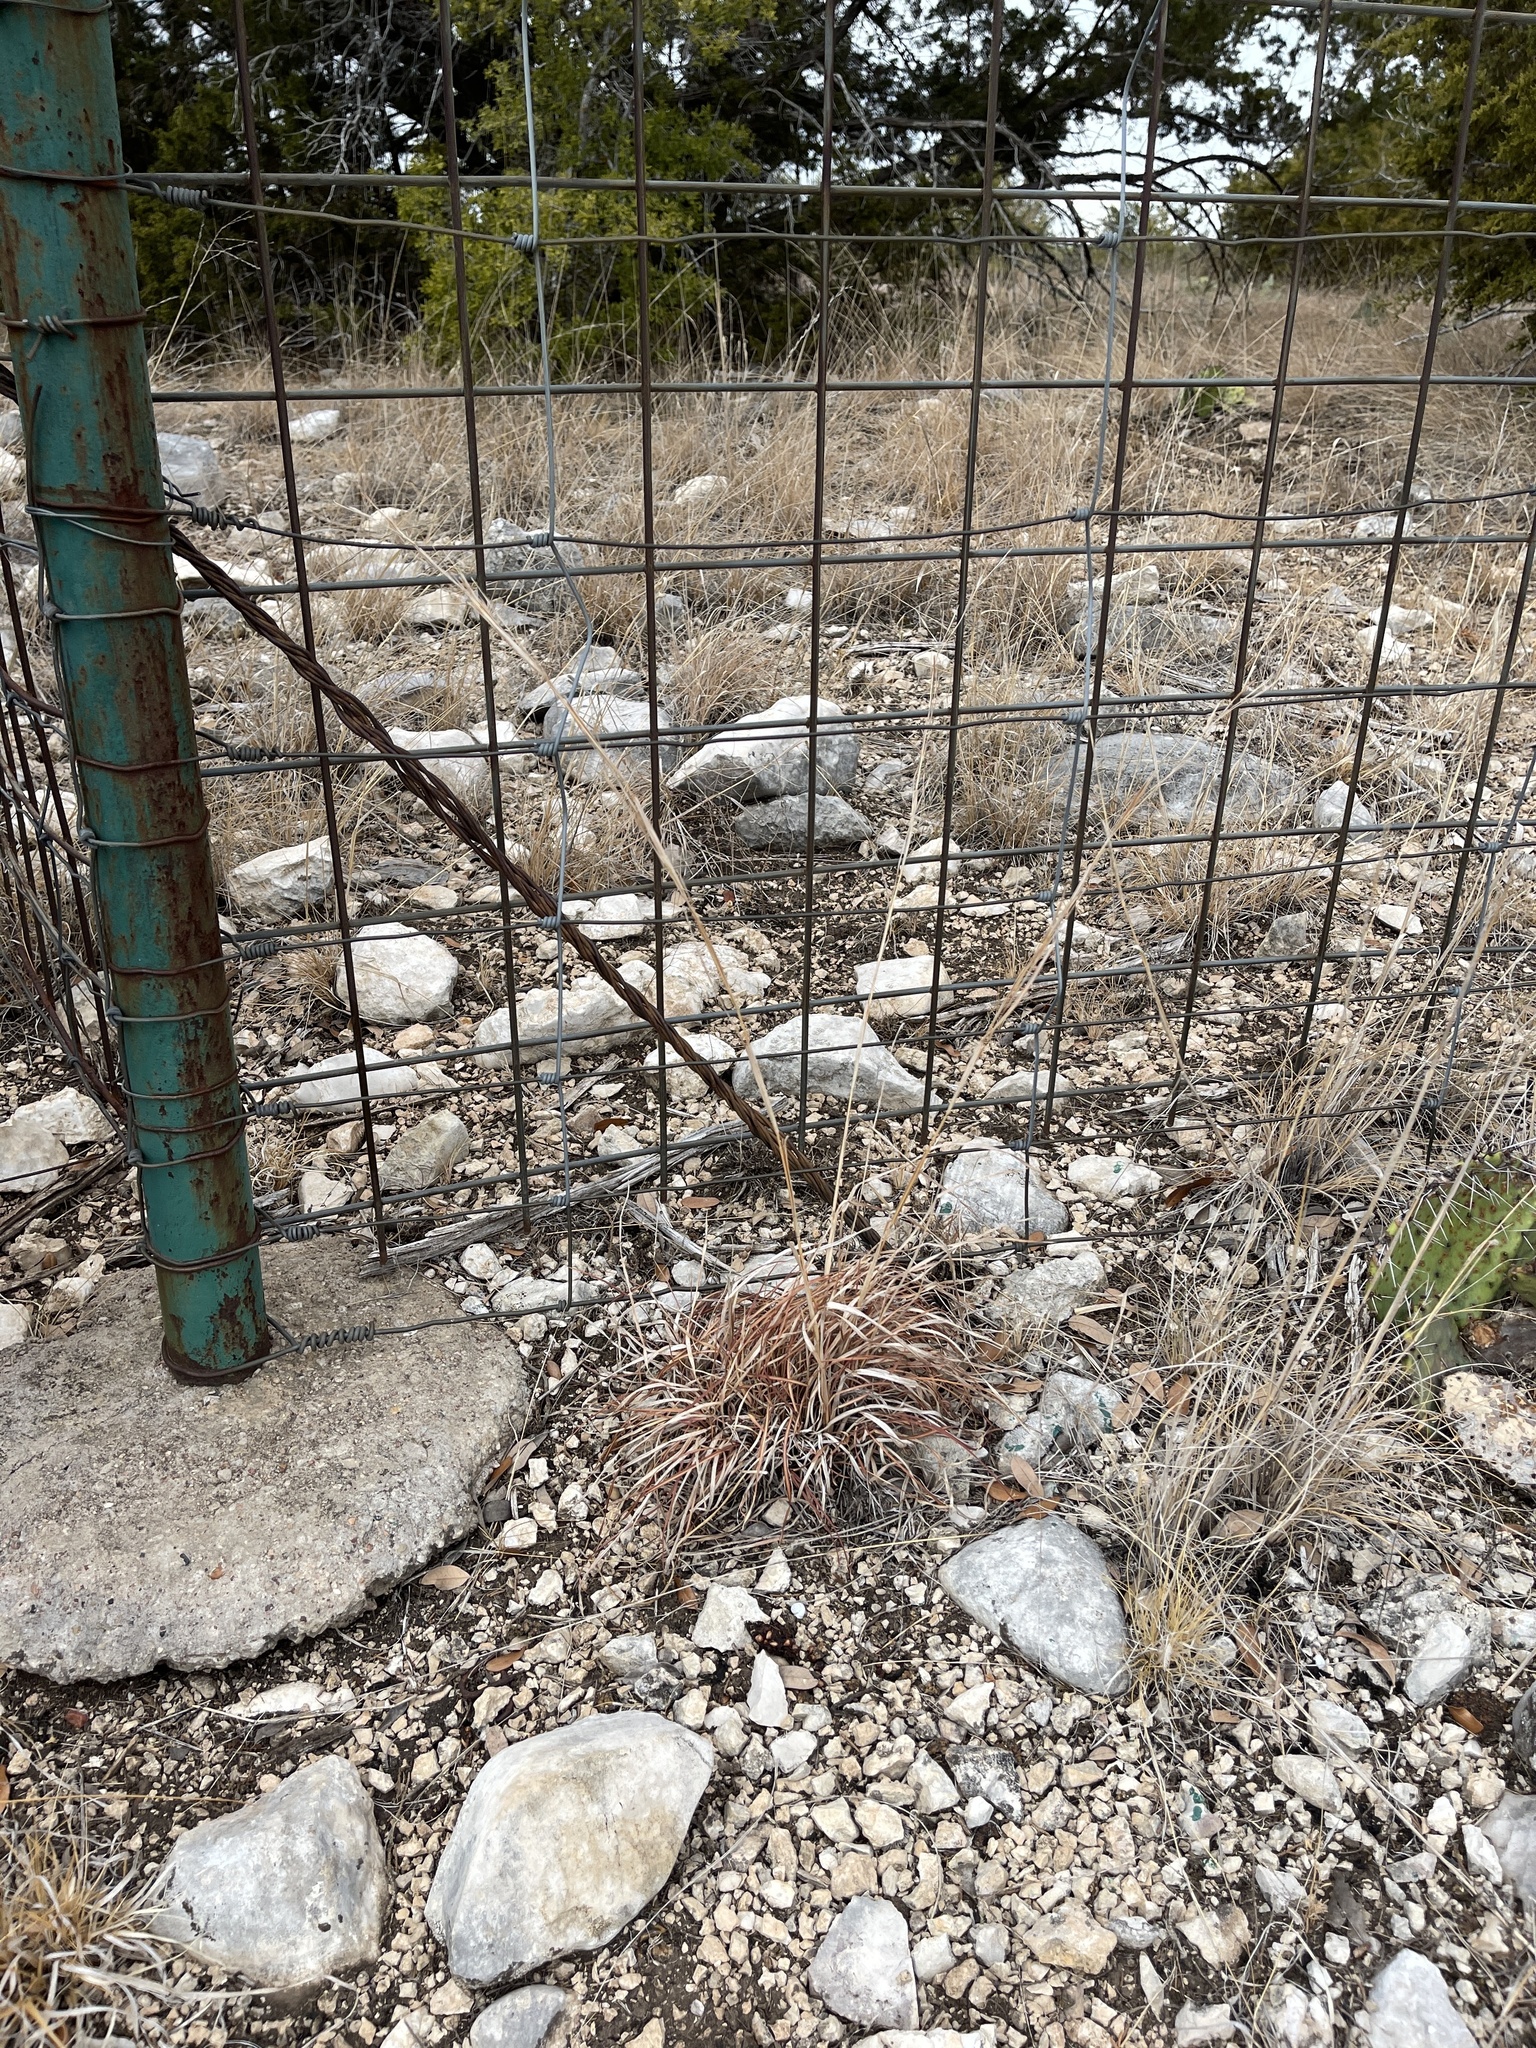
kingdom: Plantae
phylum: Tracheophyta
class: Liliopsida
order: Poales
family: Poaceae
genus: Schizachyrium
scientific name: Schizachyrium scoparium
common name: Little bluestem
